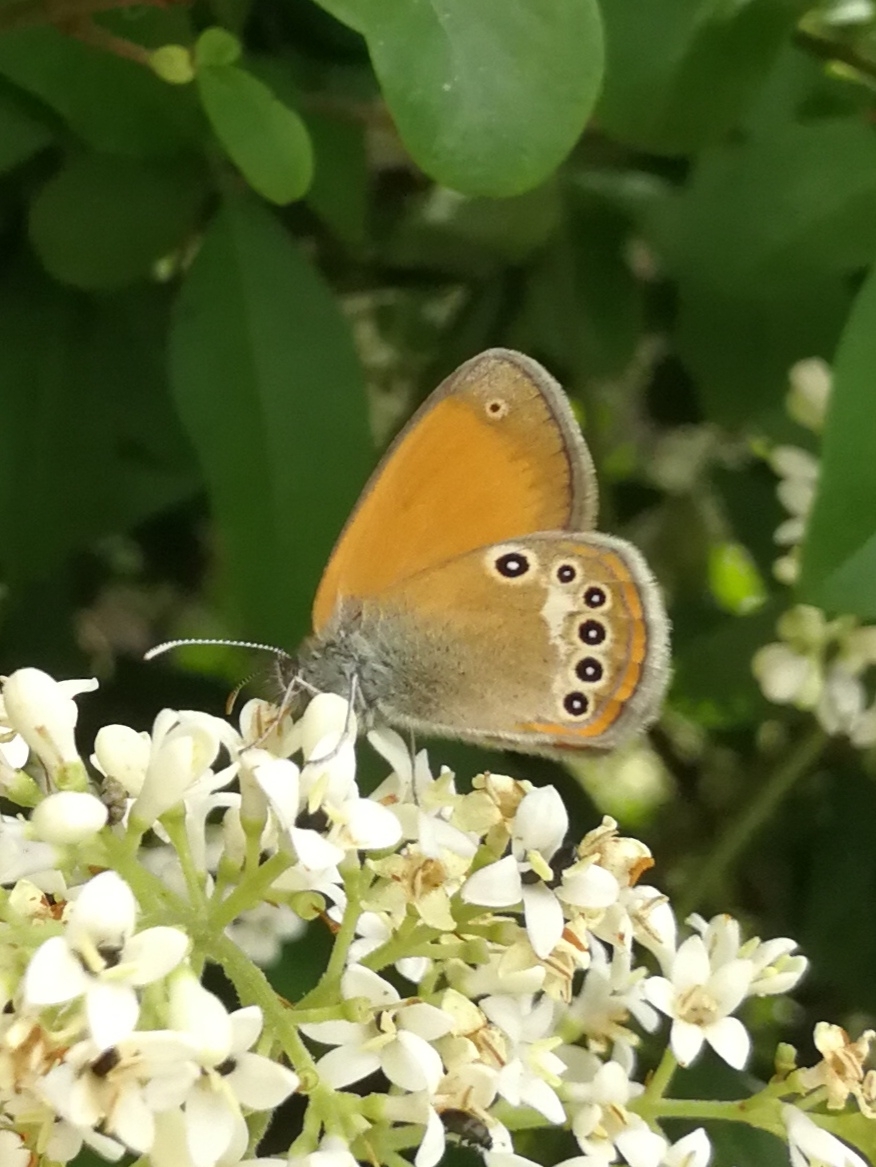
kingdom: Animalia
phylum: Arthropoda
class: Insecta
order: Lepidoptera
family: Nymphalidae
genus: Coenonympha
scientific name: Coenonympha iphis
